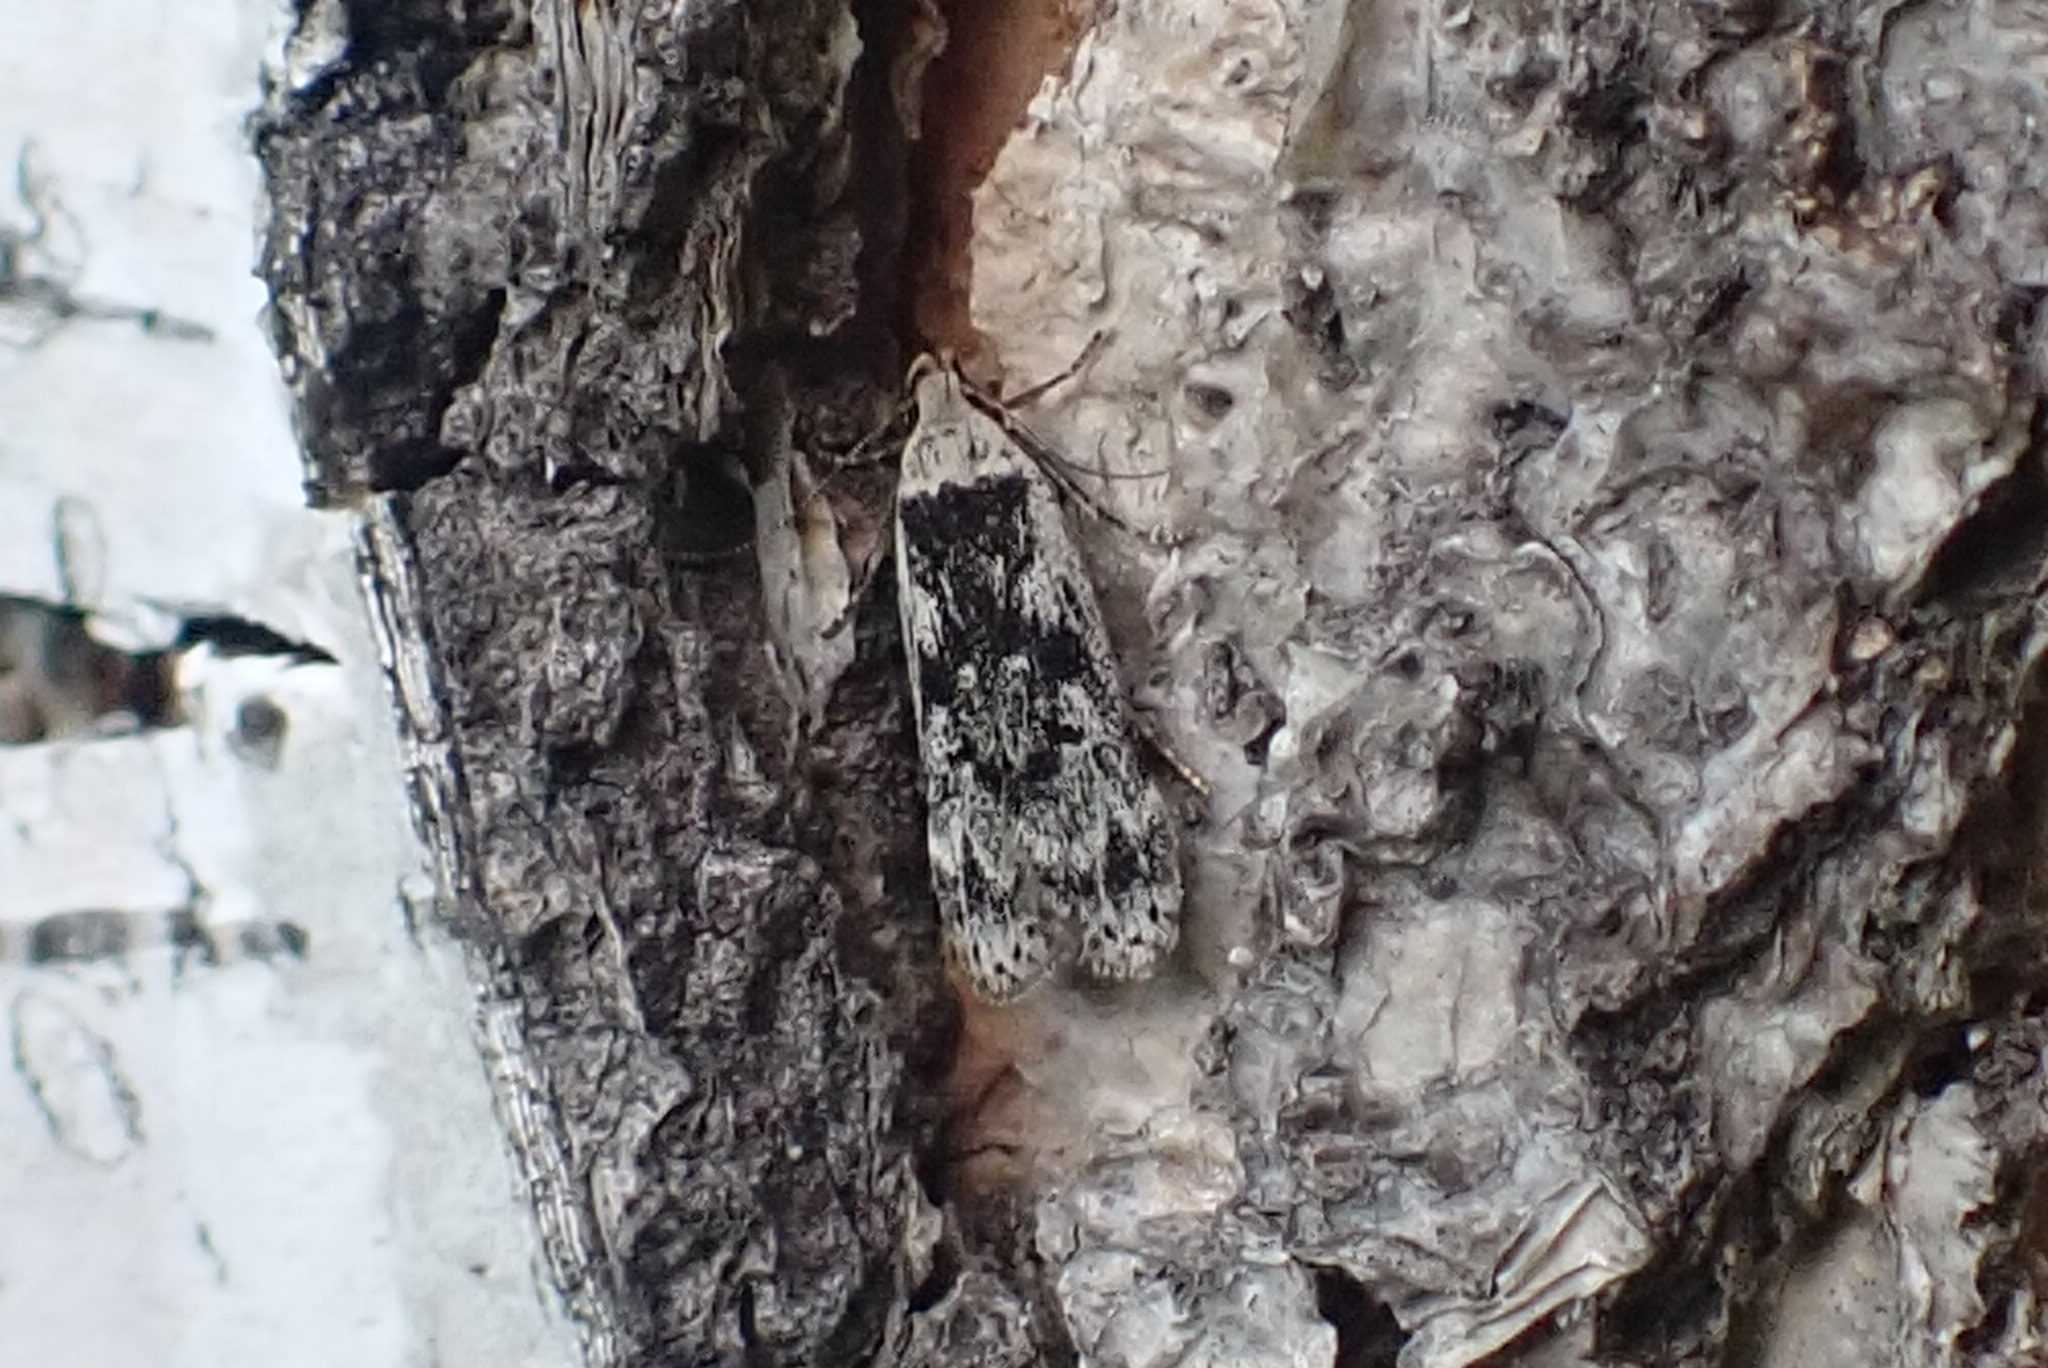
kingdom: Animalia
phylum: Arthropoda
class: Insecta
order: Lepidoptera
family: Gelechiidae
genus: Anacampsis
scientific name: Anacampsis blattariella
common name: Birch sober
